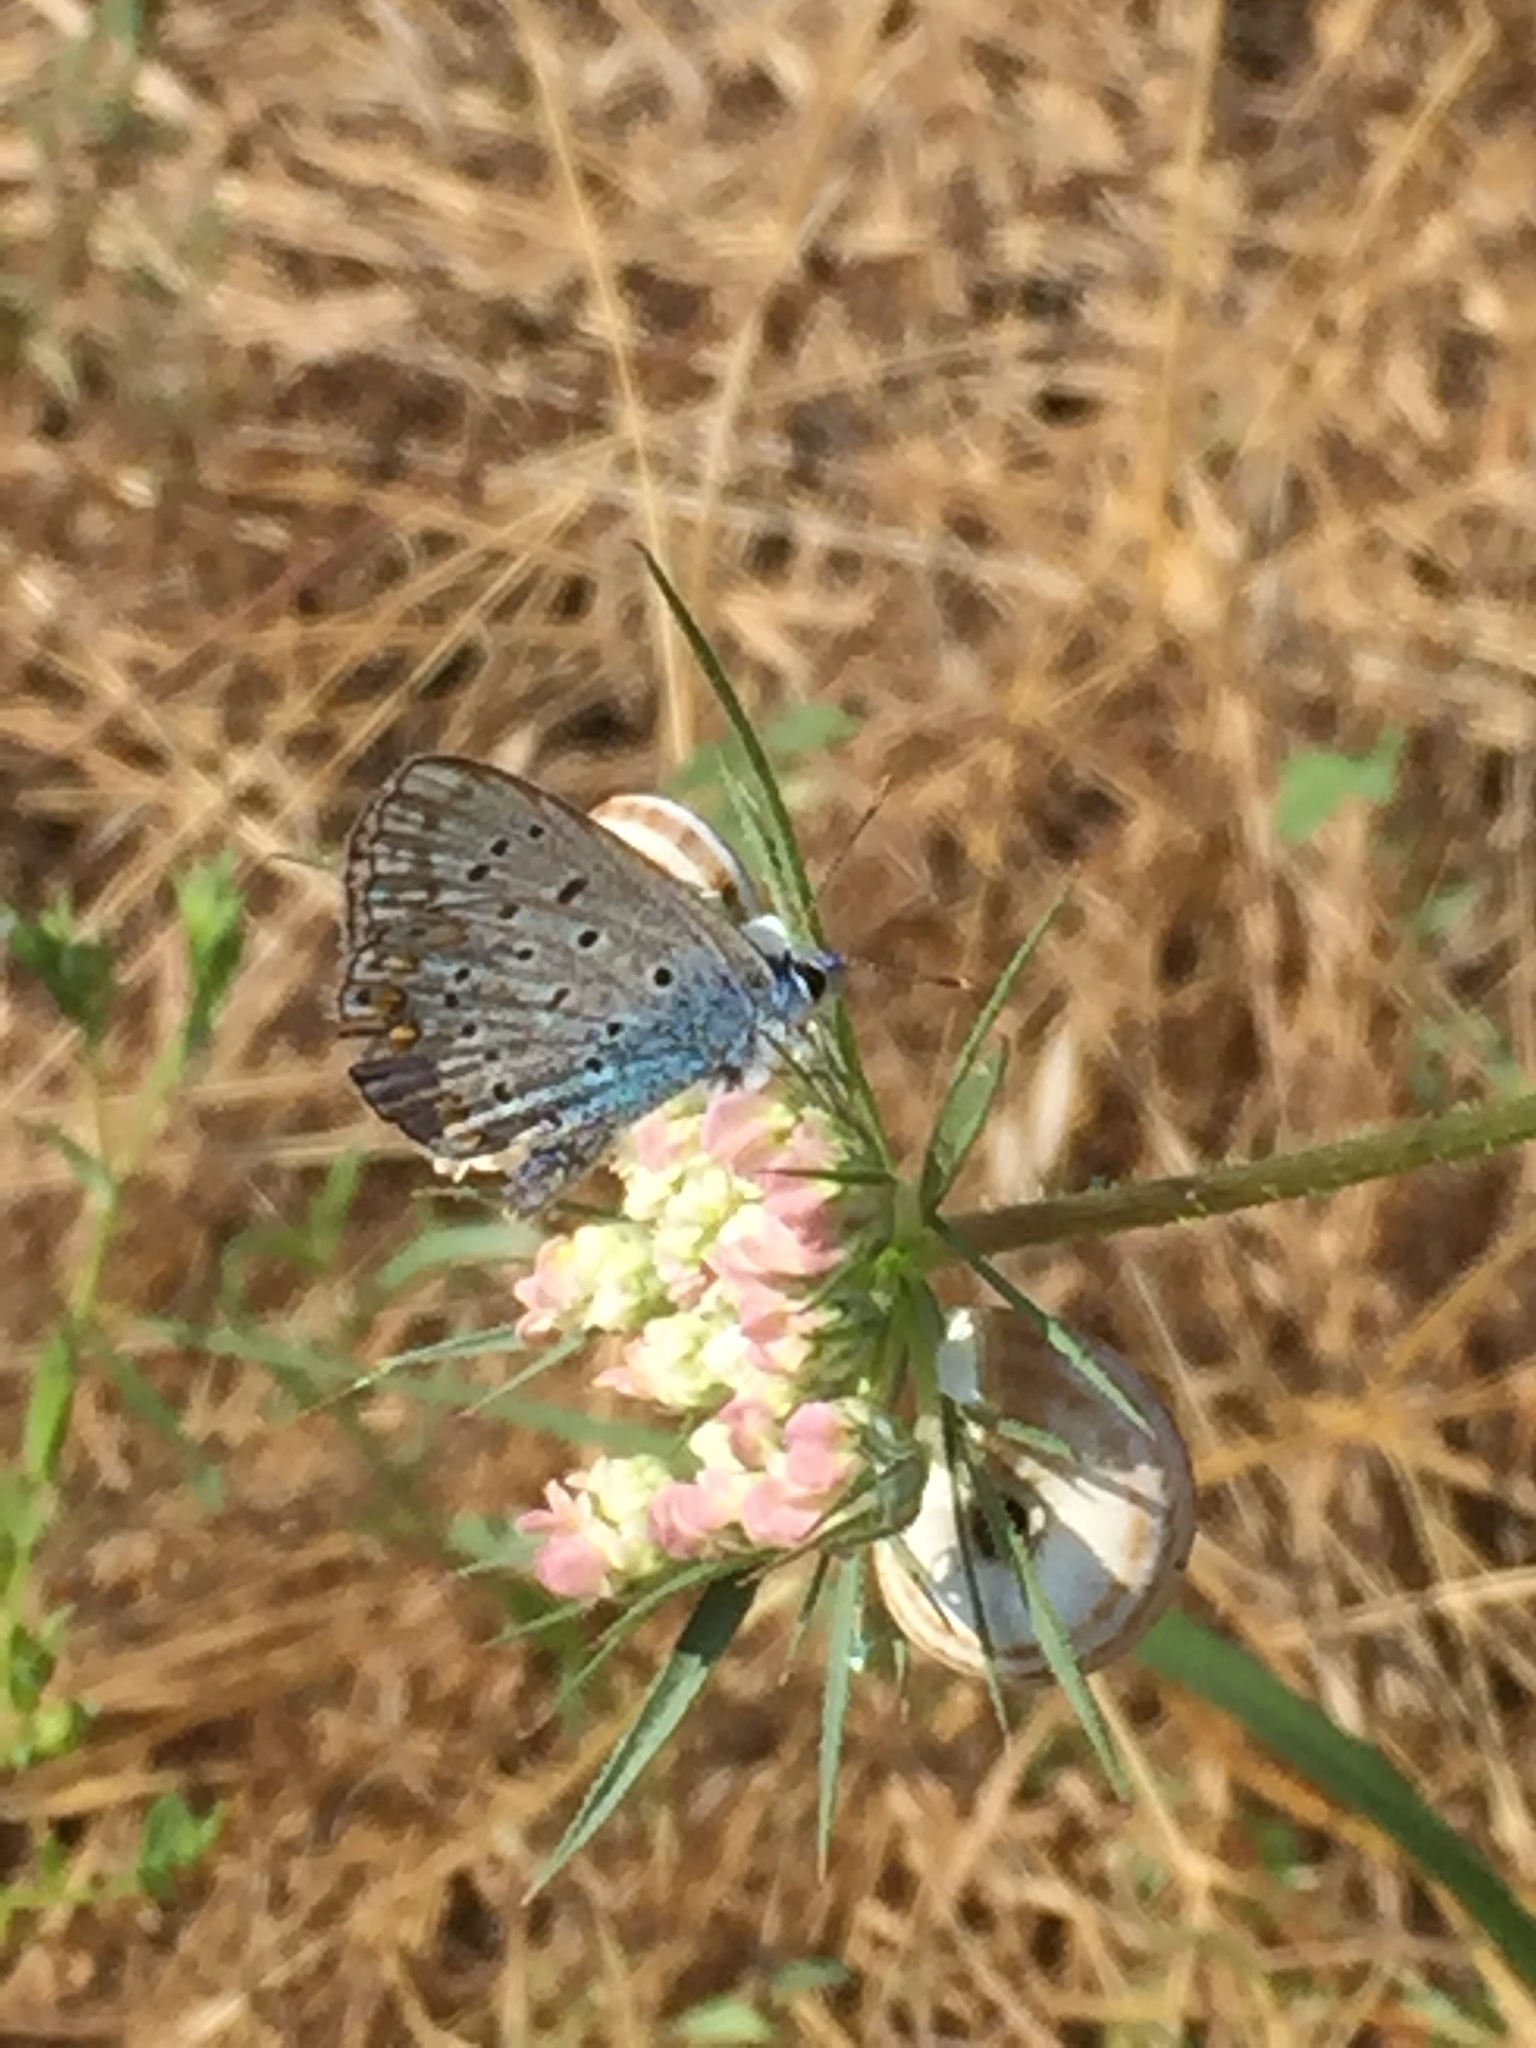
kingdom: Animalia
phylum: Arthropoda
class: Insecta
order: Lepidoptera
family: Lycaenidae
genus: Polyommatus
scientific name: Polyommatus icarus
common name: Common blue
